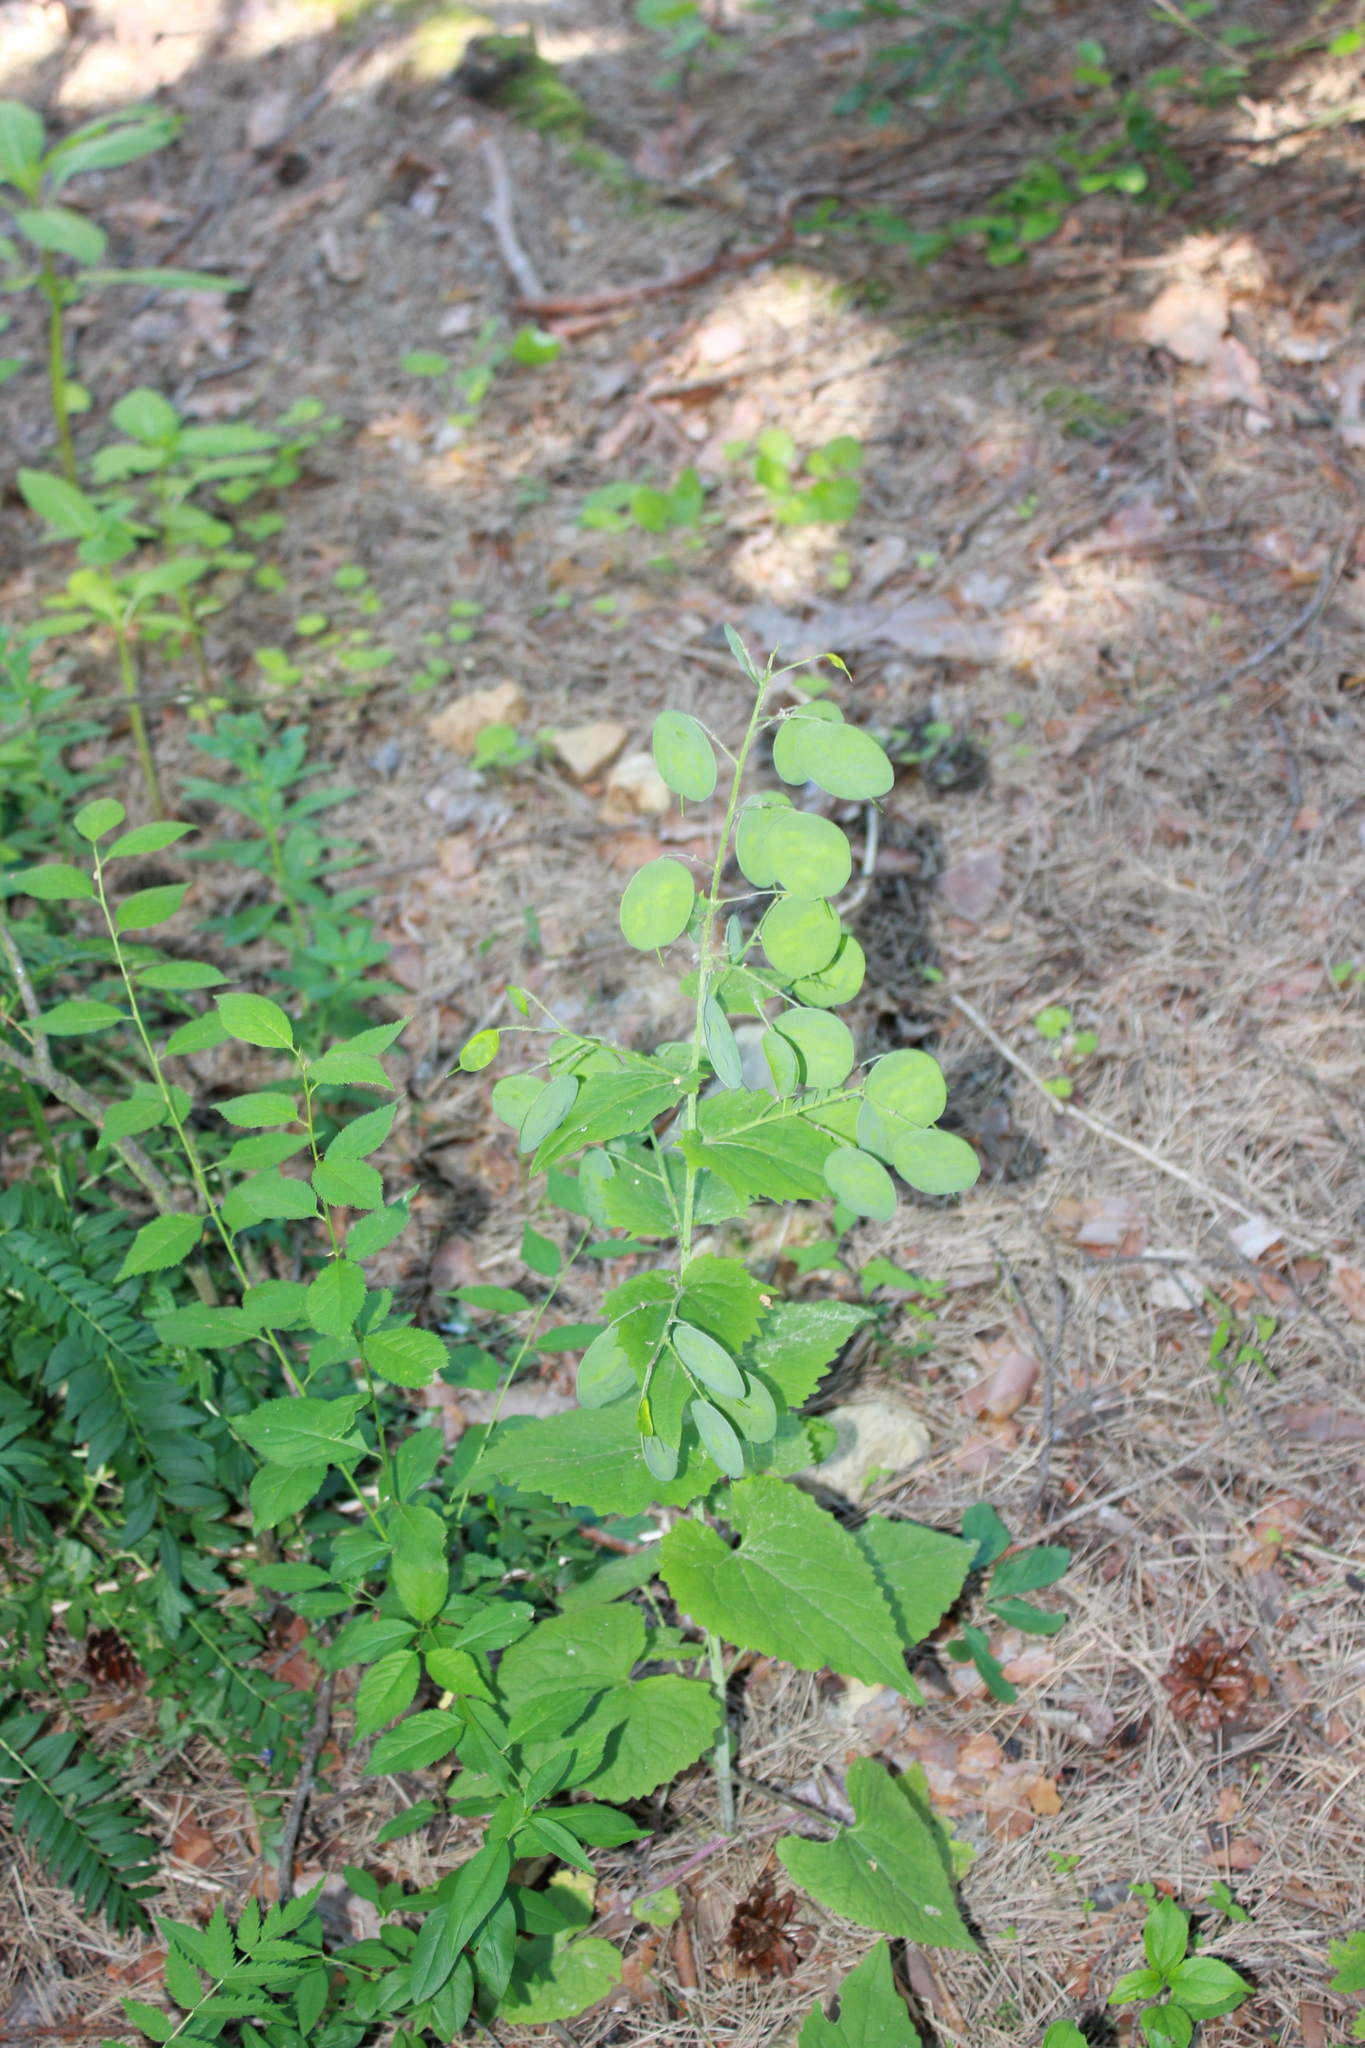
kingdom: Plantae
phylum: Tracheophyta
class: Magnoliopsida
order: Brassicales
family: Brassicaceae
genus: Lunaria
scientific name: Lunaria annua
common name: Honesty
